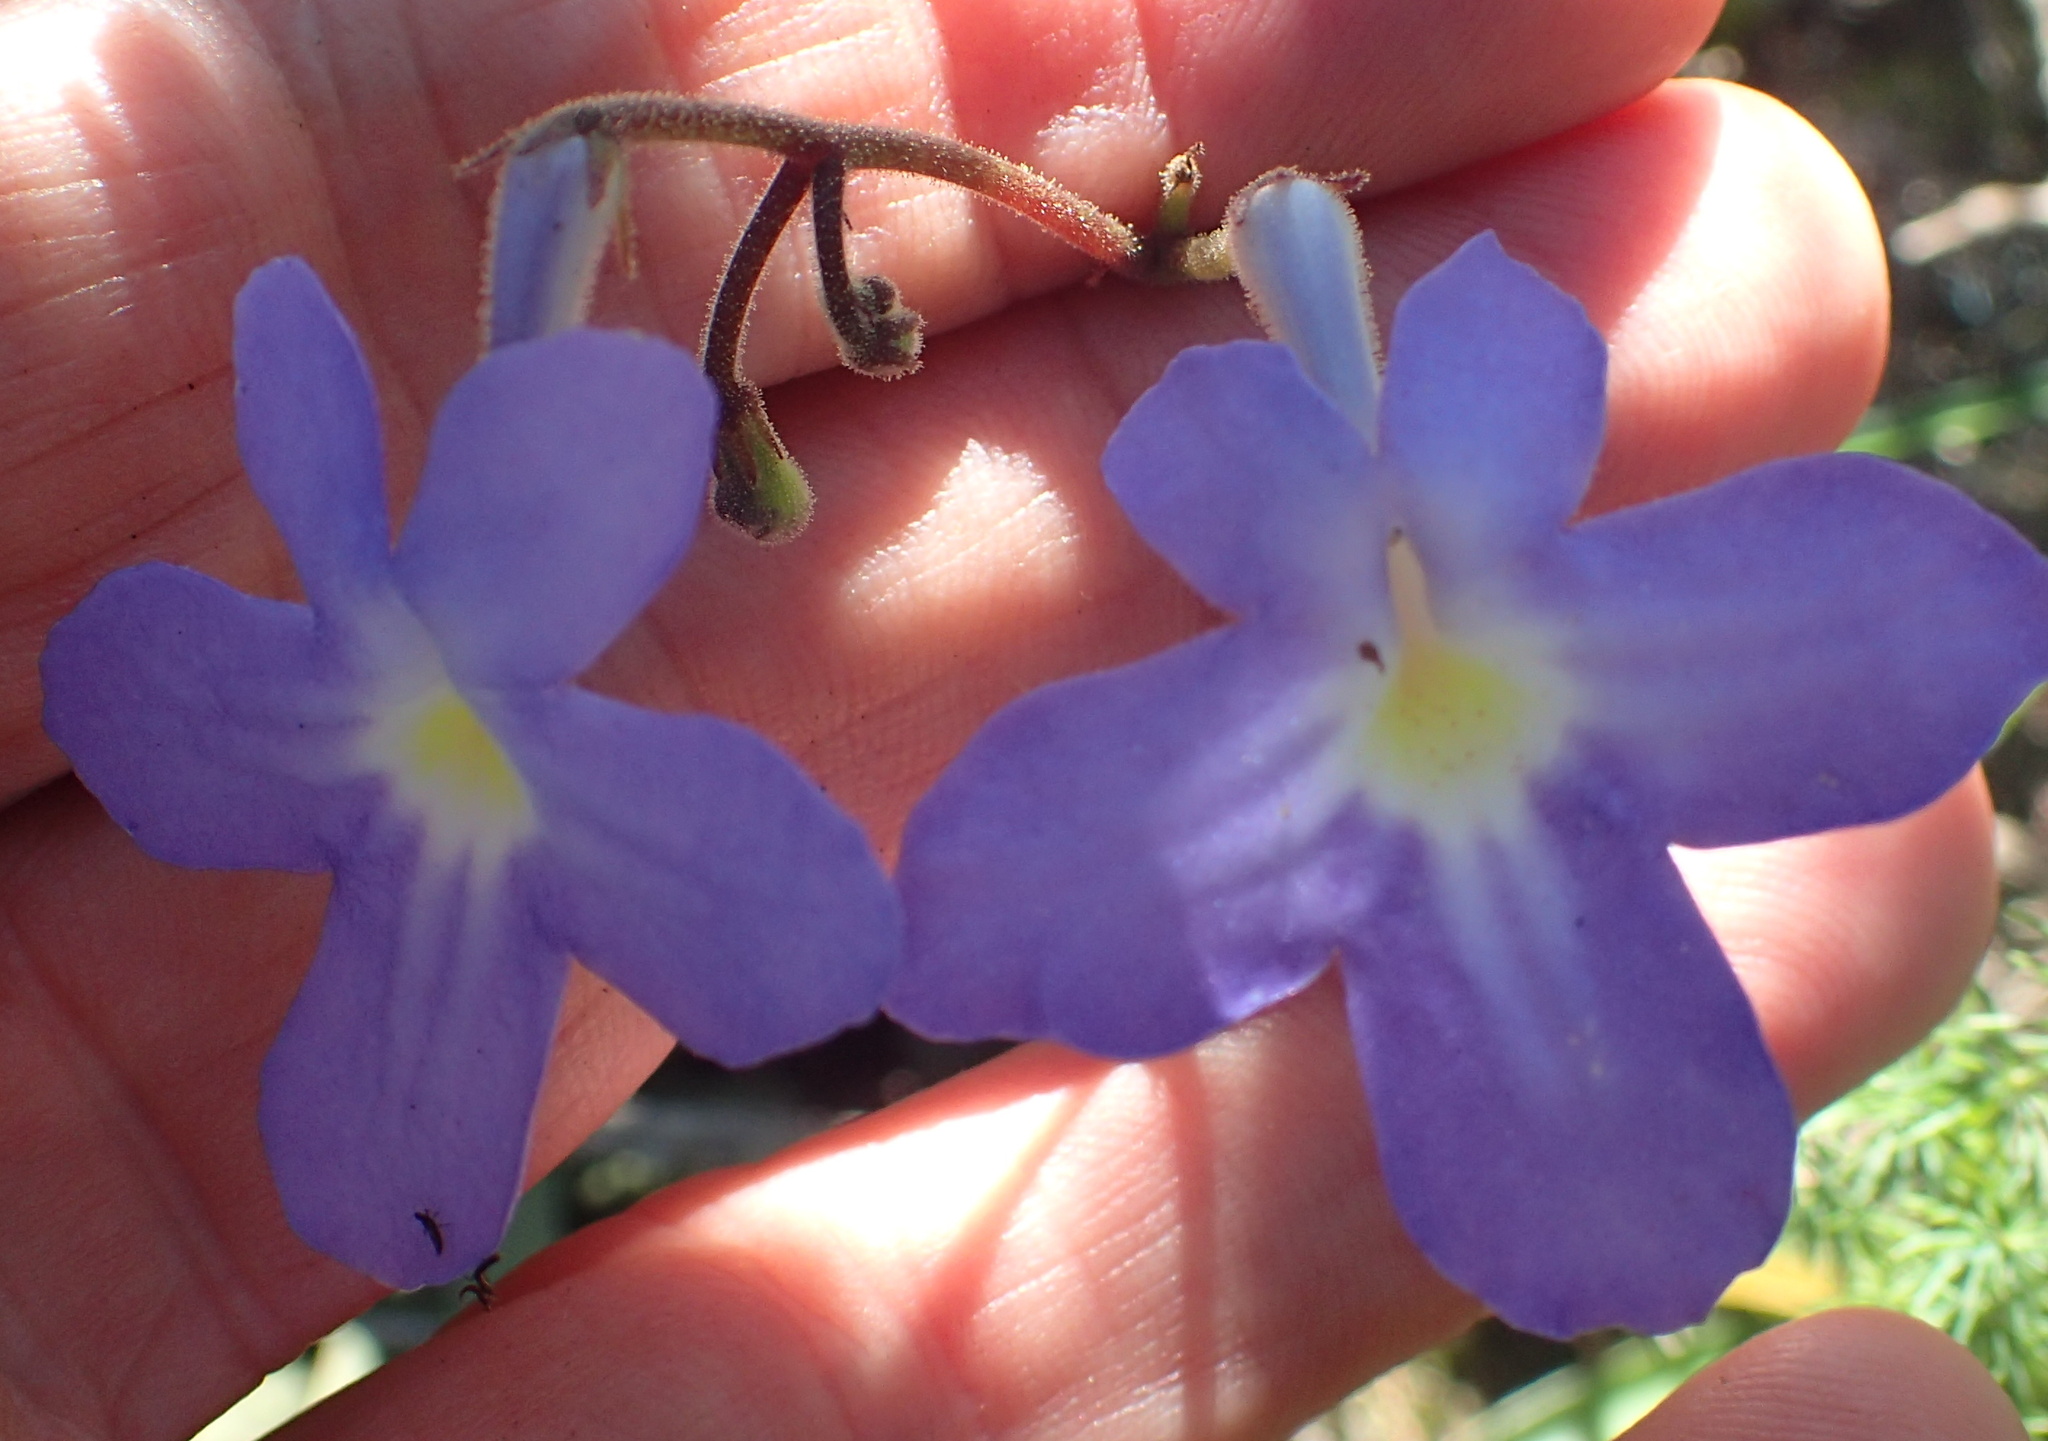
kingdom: Plantae
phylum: Tracheophyta
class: Magnoliopsida
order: Lamiales
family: Gesneriaceae
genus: Streptocarpus
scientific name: Streptocarpus polyanthus
